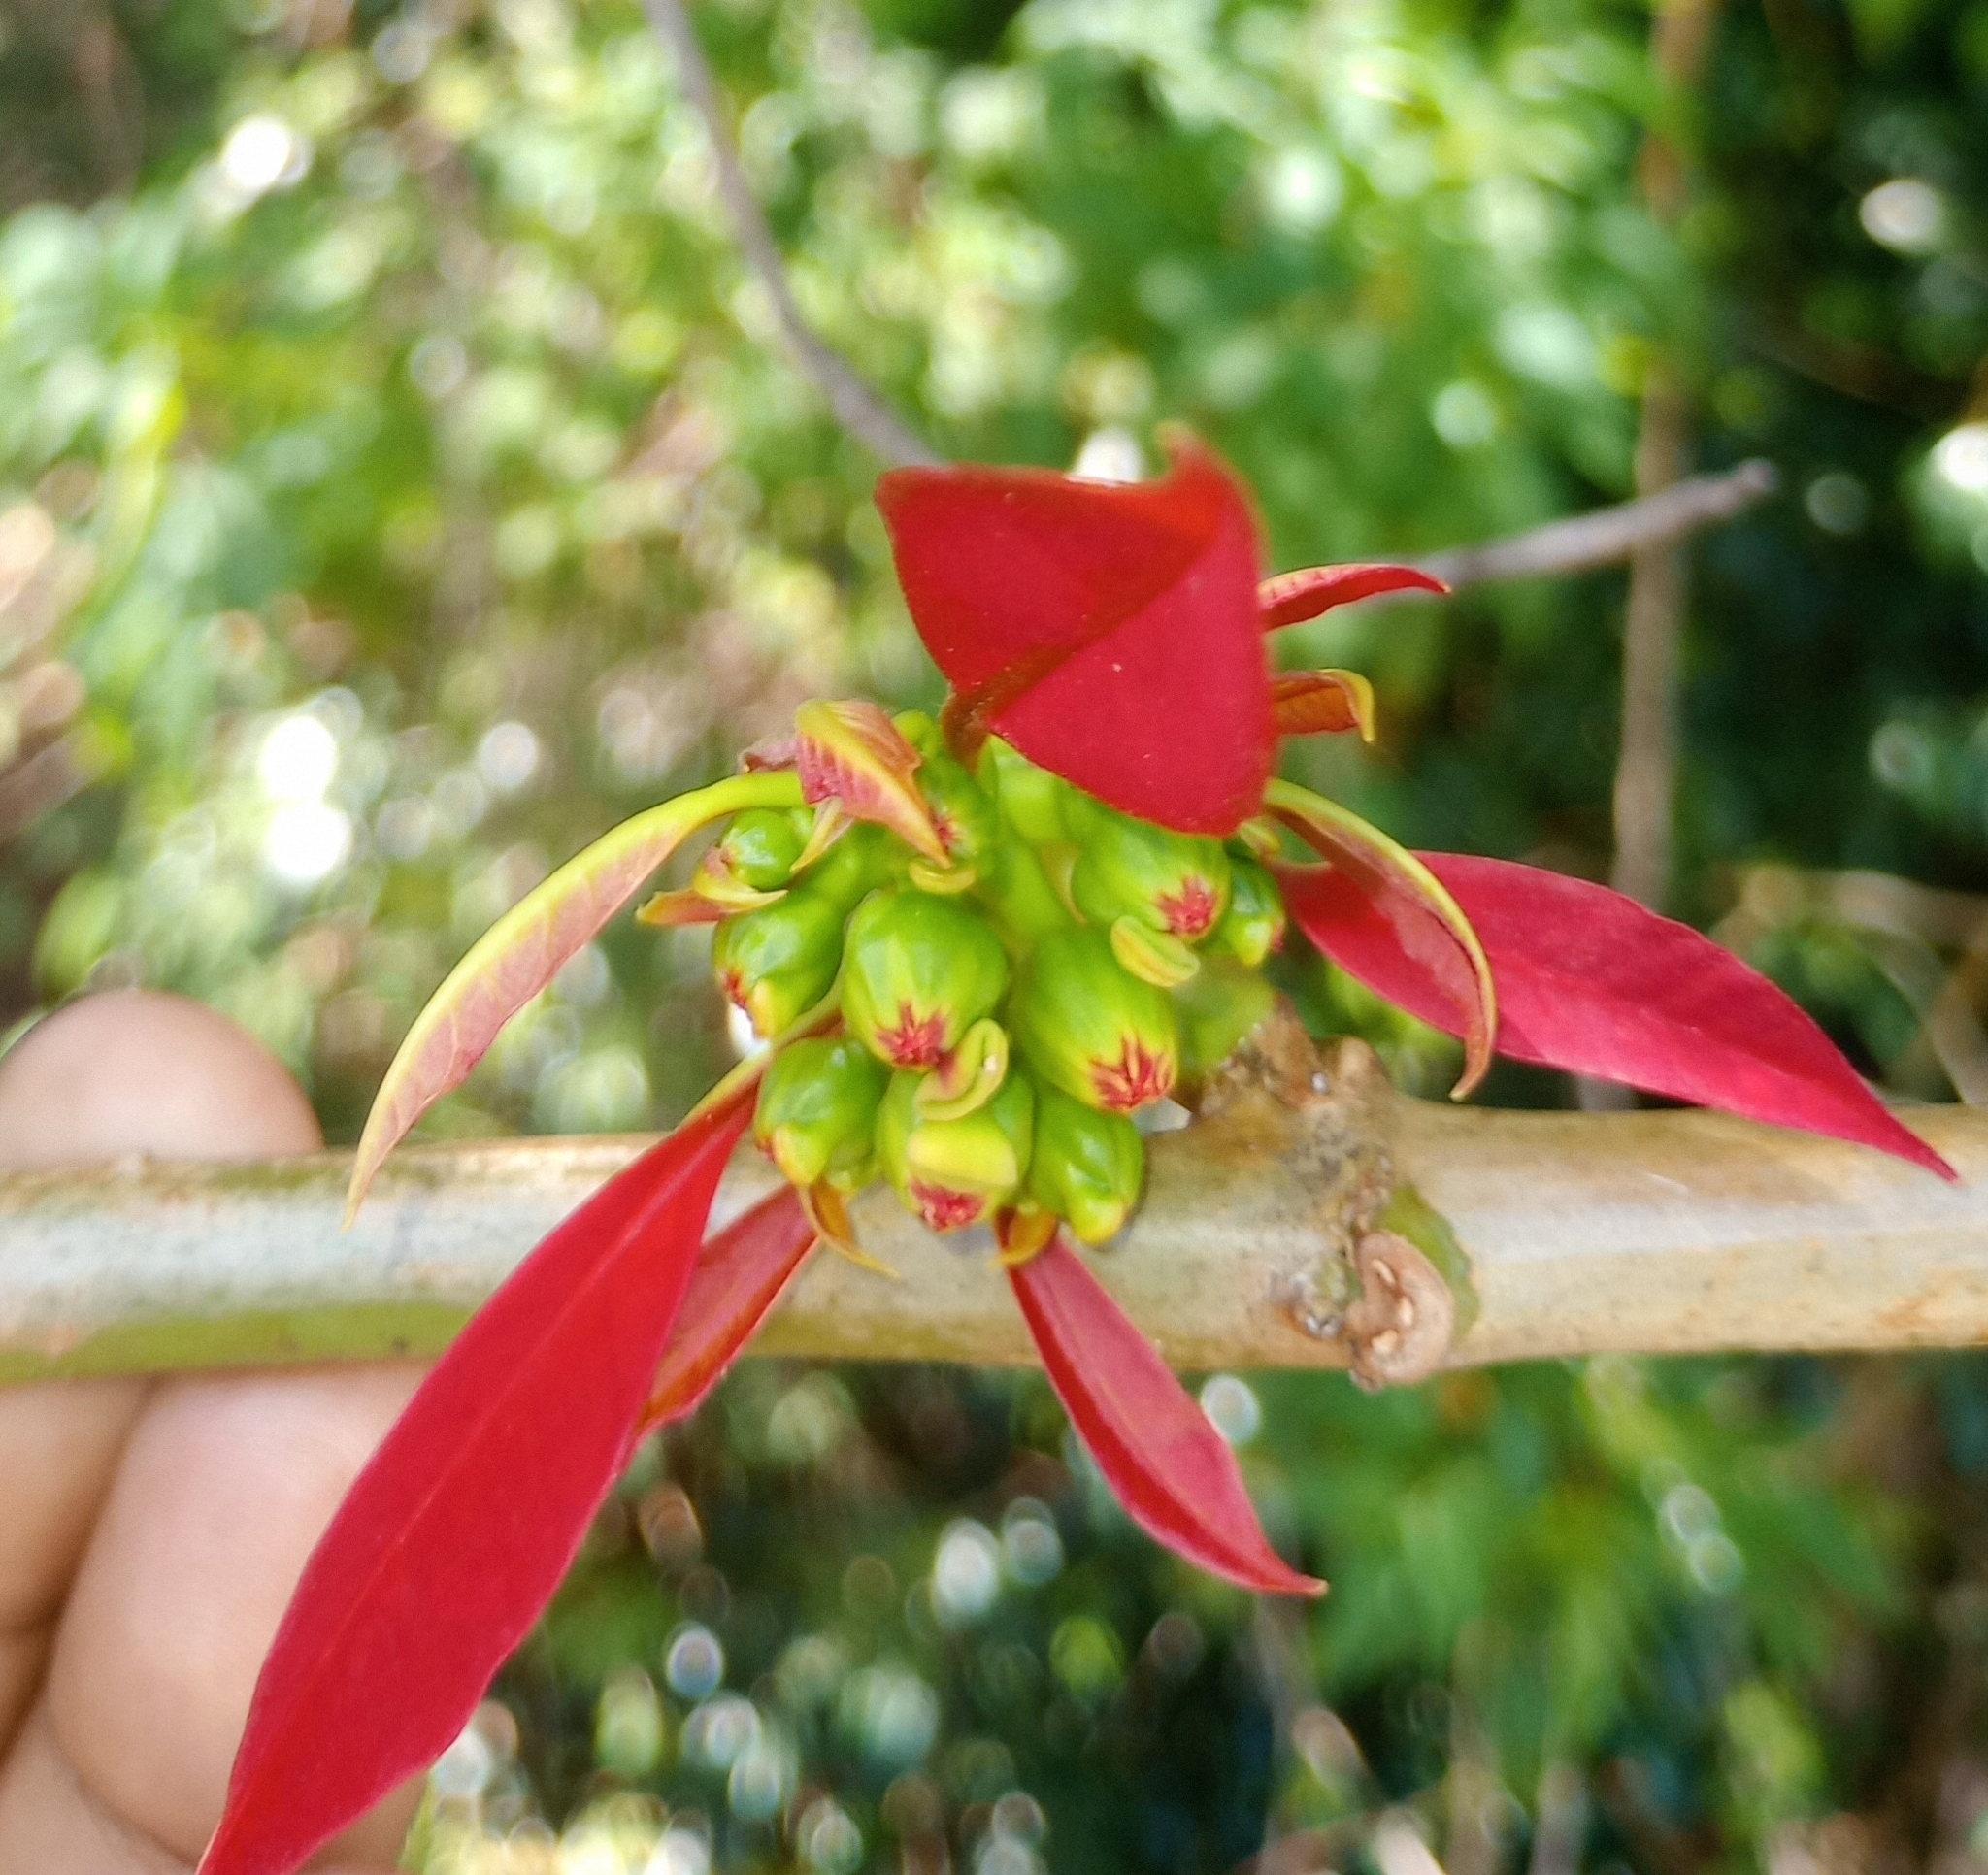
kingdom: Plantae
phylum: Tracheophyta
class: Magnoliopsida
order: Malpighiales
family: Euphorbiaceae
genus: Euphorbia
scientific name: Euphorbia pulcherrima
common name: Christmas-flower
